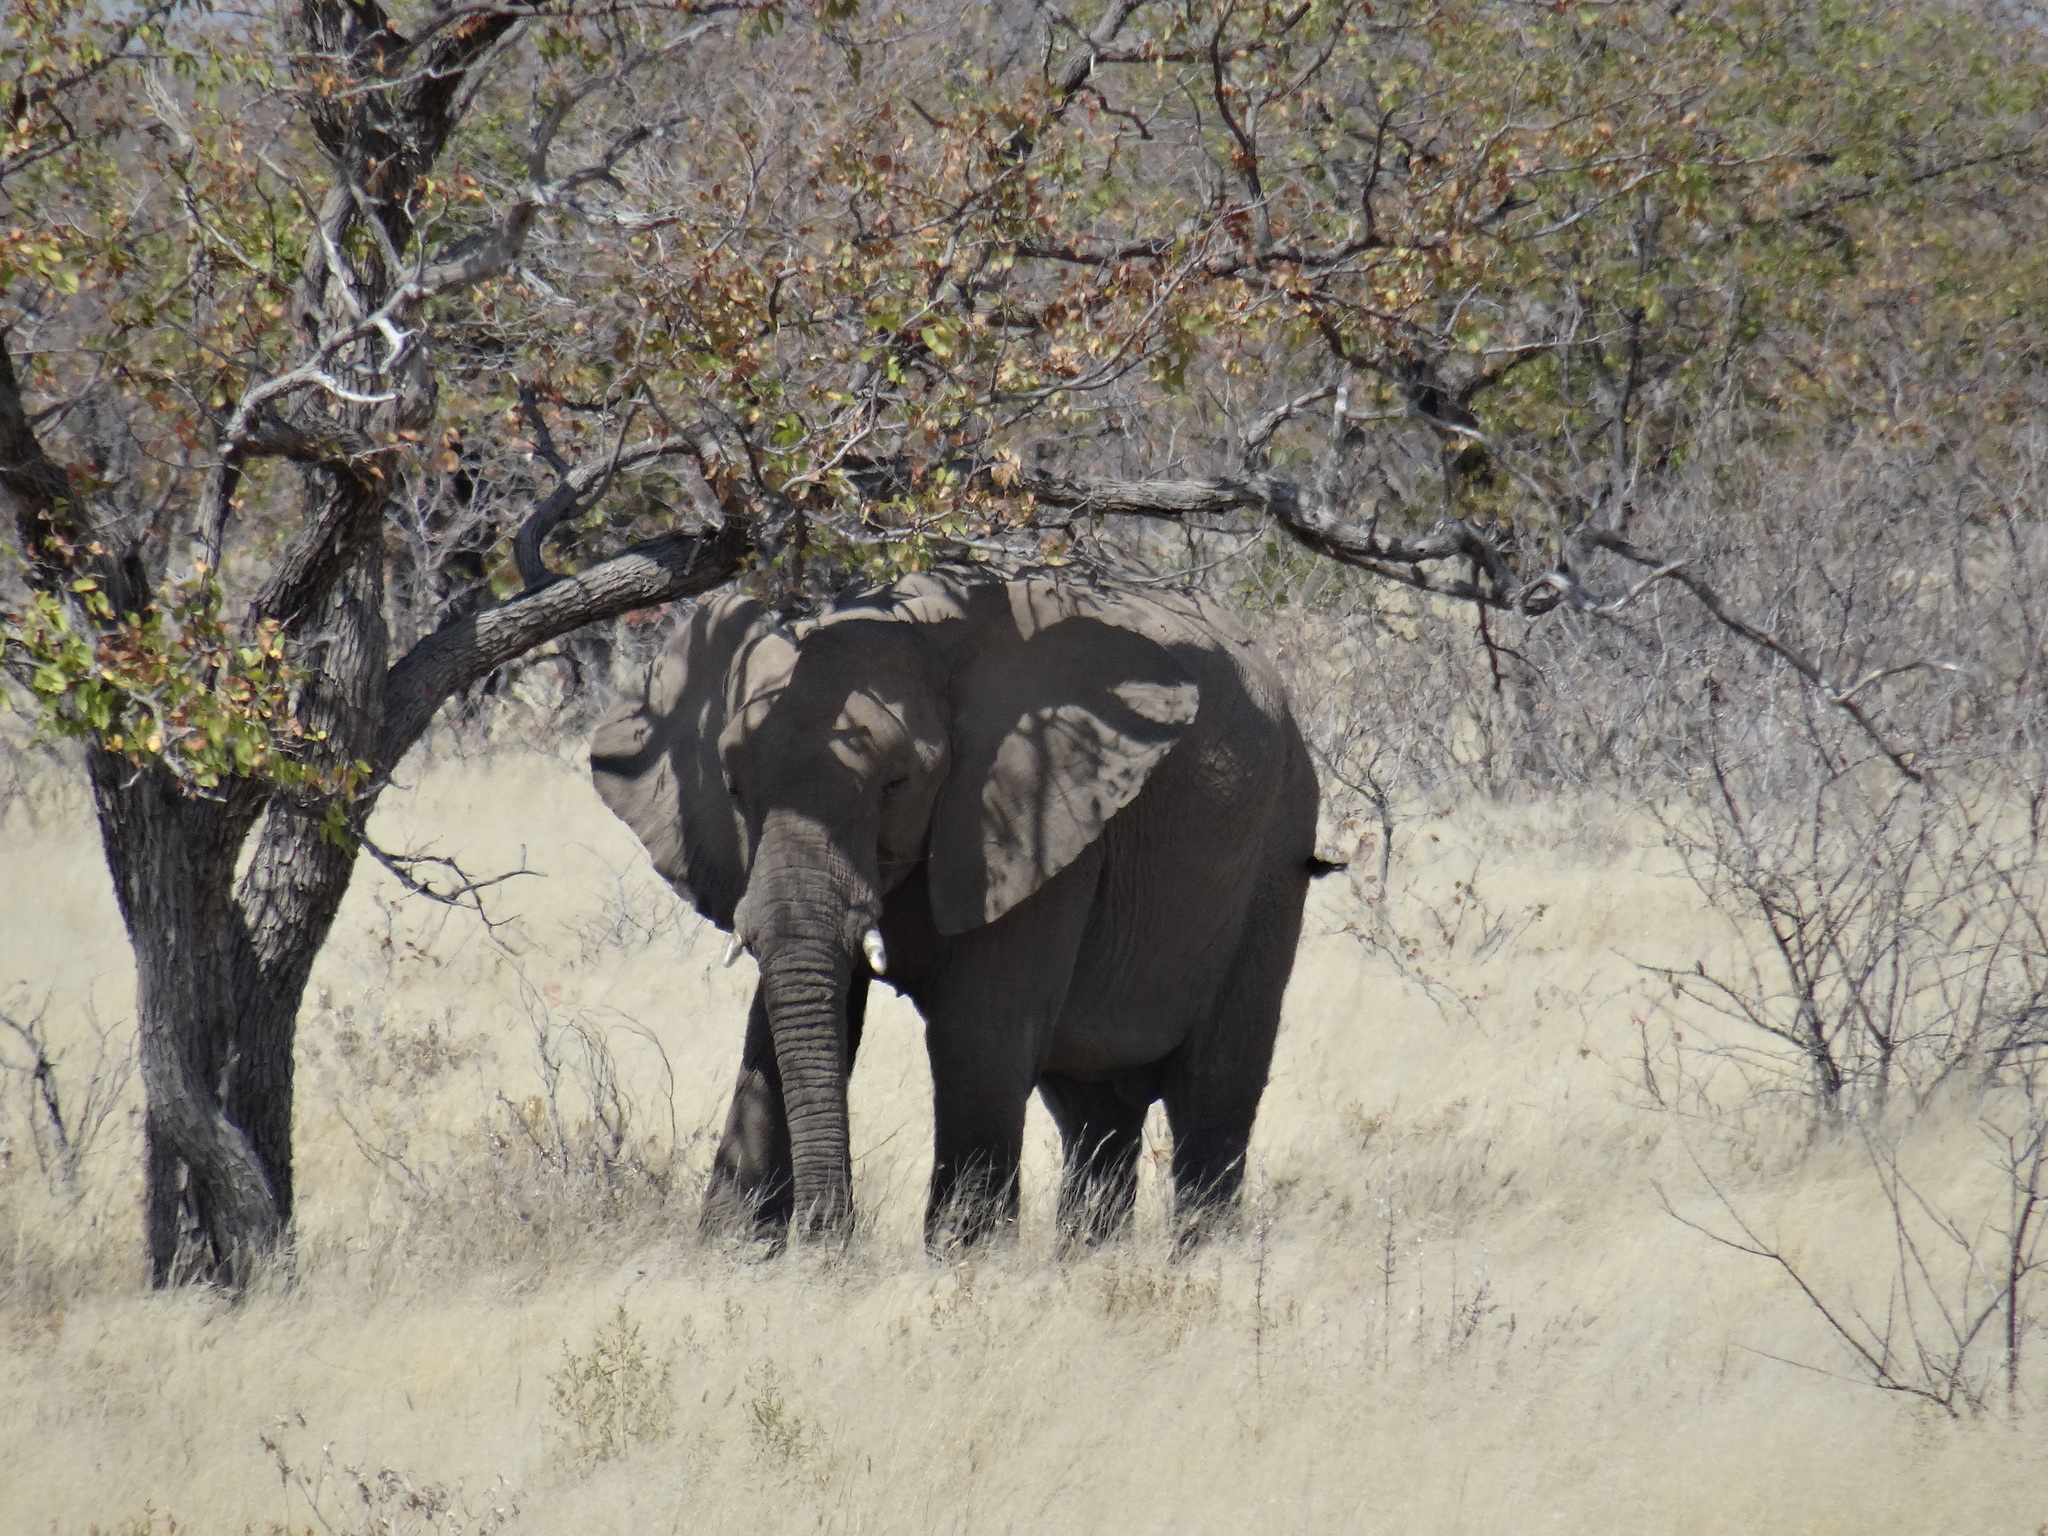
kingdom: Animalia
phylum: Chordata
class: Mammalia
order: Proboscidea
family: Elephantidae
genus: Loxodonta
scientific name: Loxodonta africana
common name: African elephant
